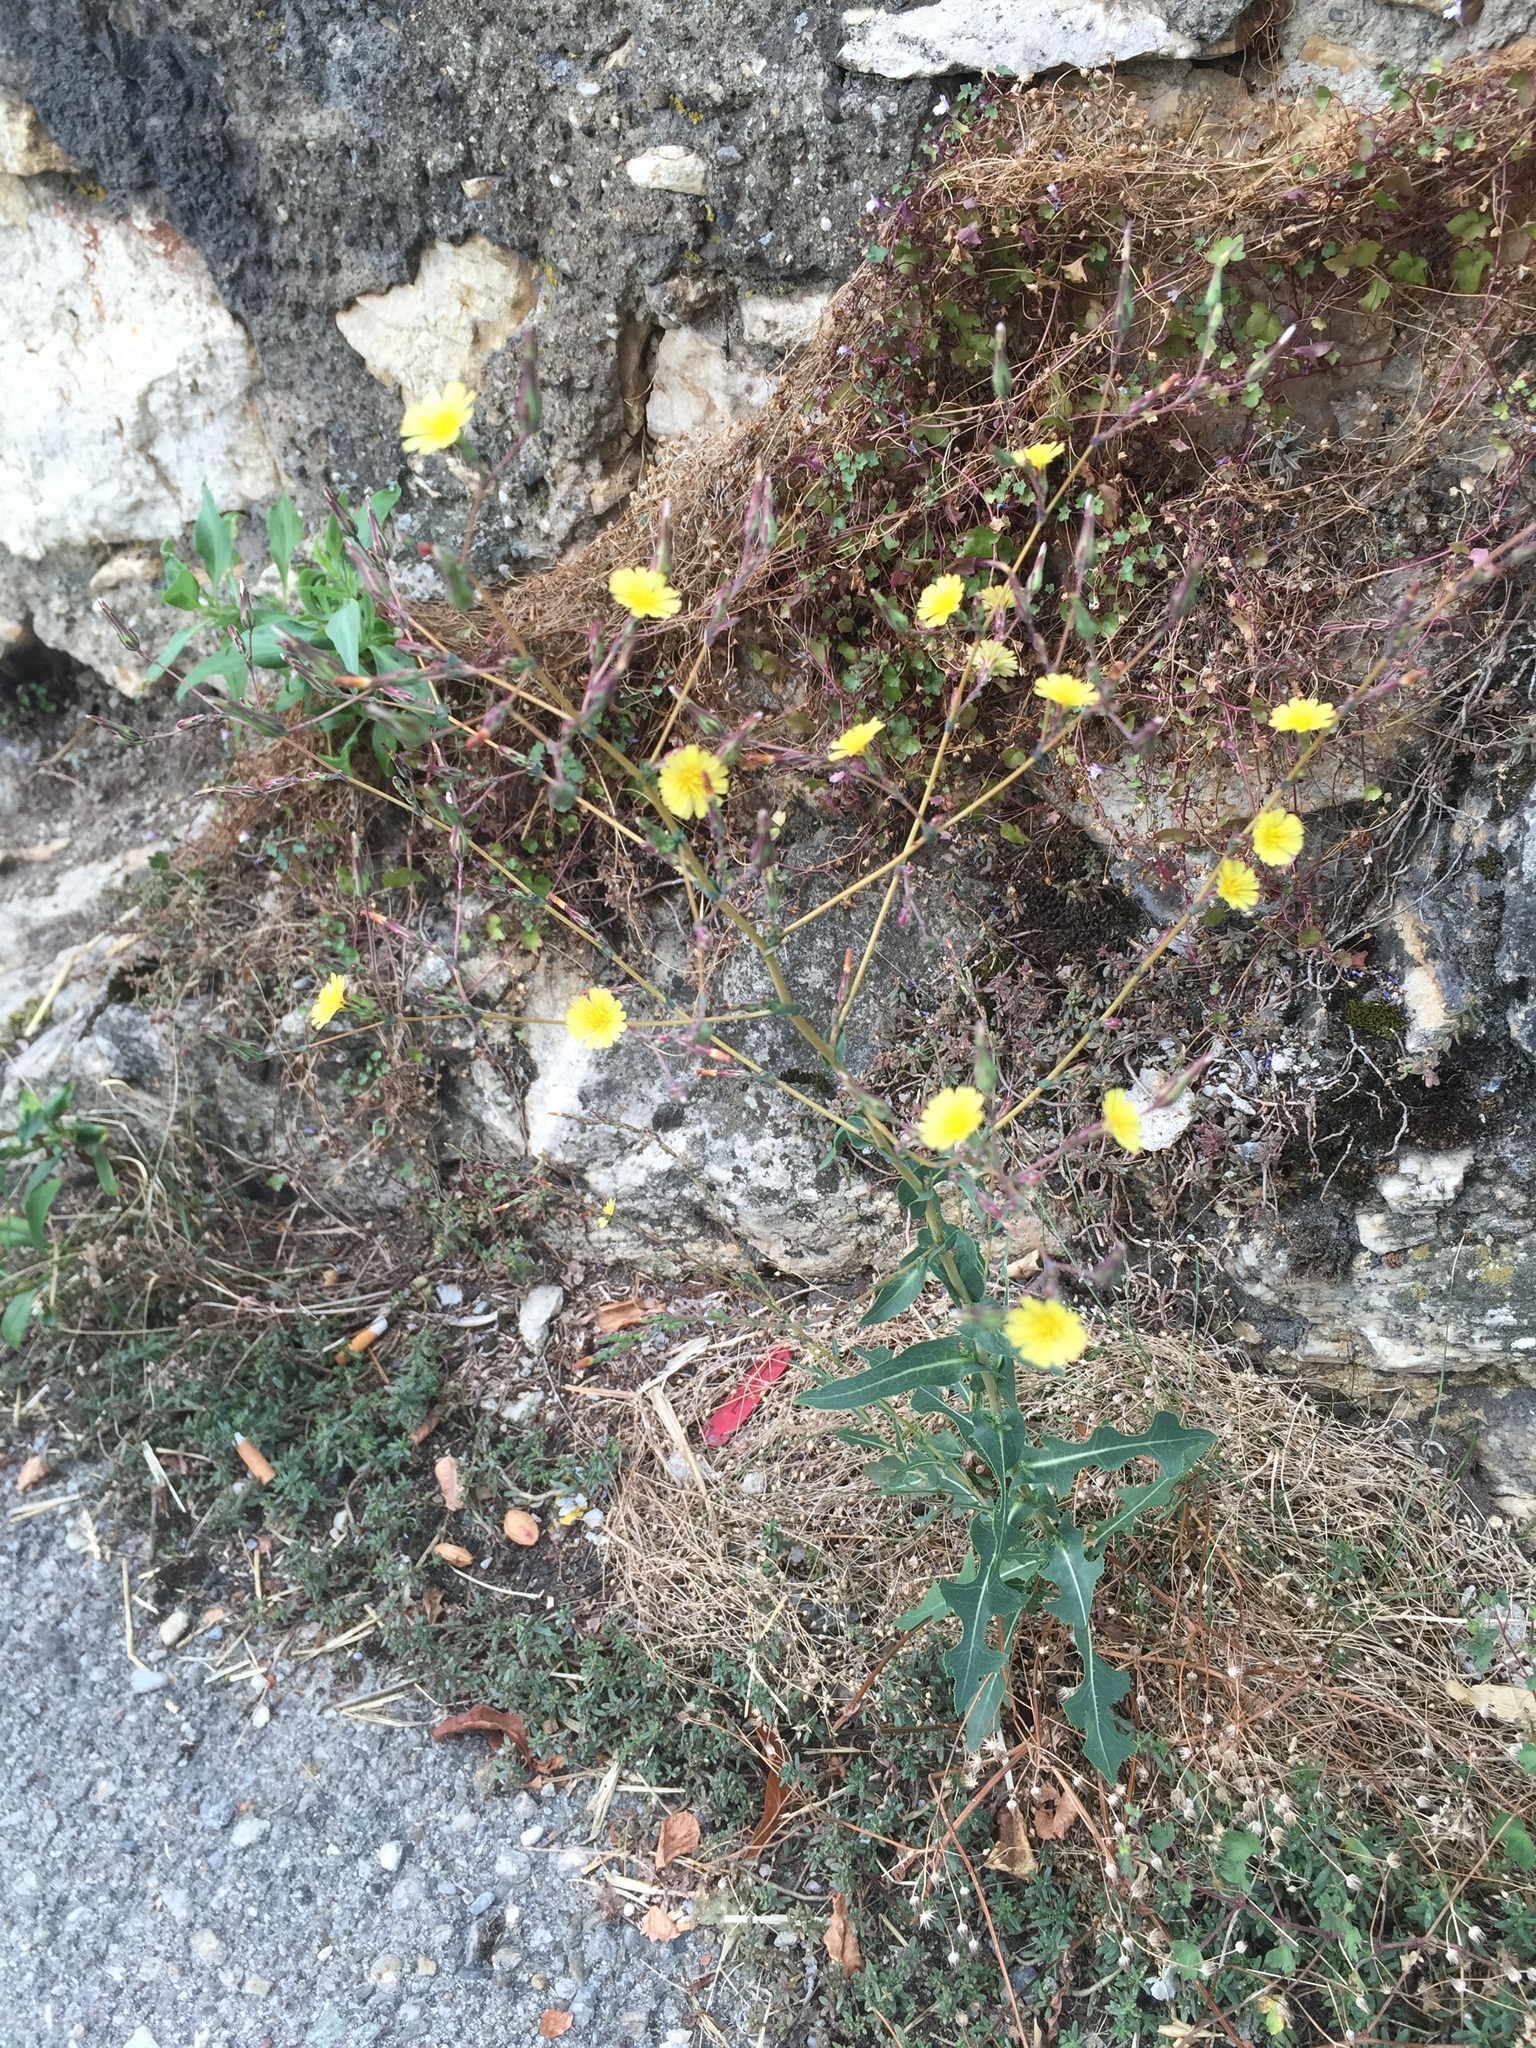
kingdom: Plantae
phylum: Tracheophyta
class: Magnoliopsida
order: Asterales
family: Asteraceae
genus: Lactuca
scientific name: Lactuca serriola
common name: Prickly lettuce
